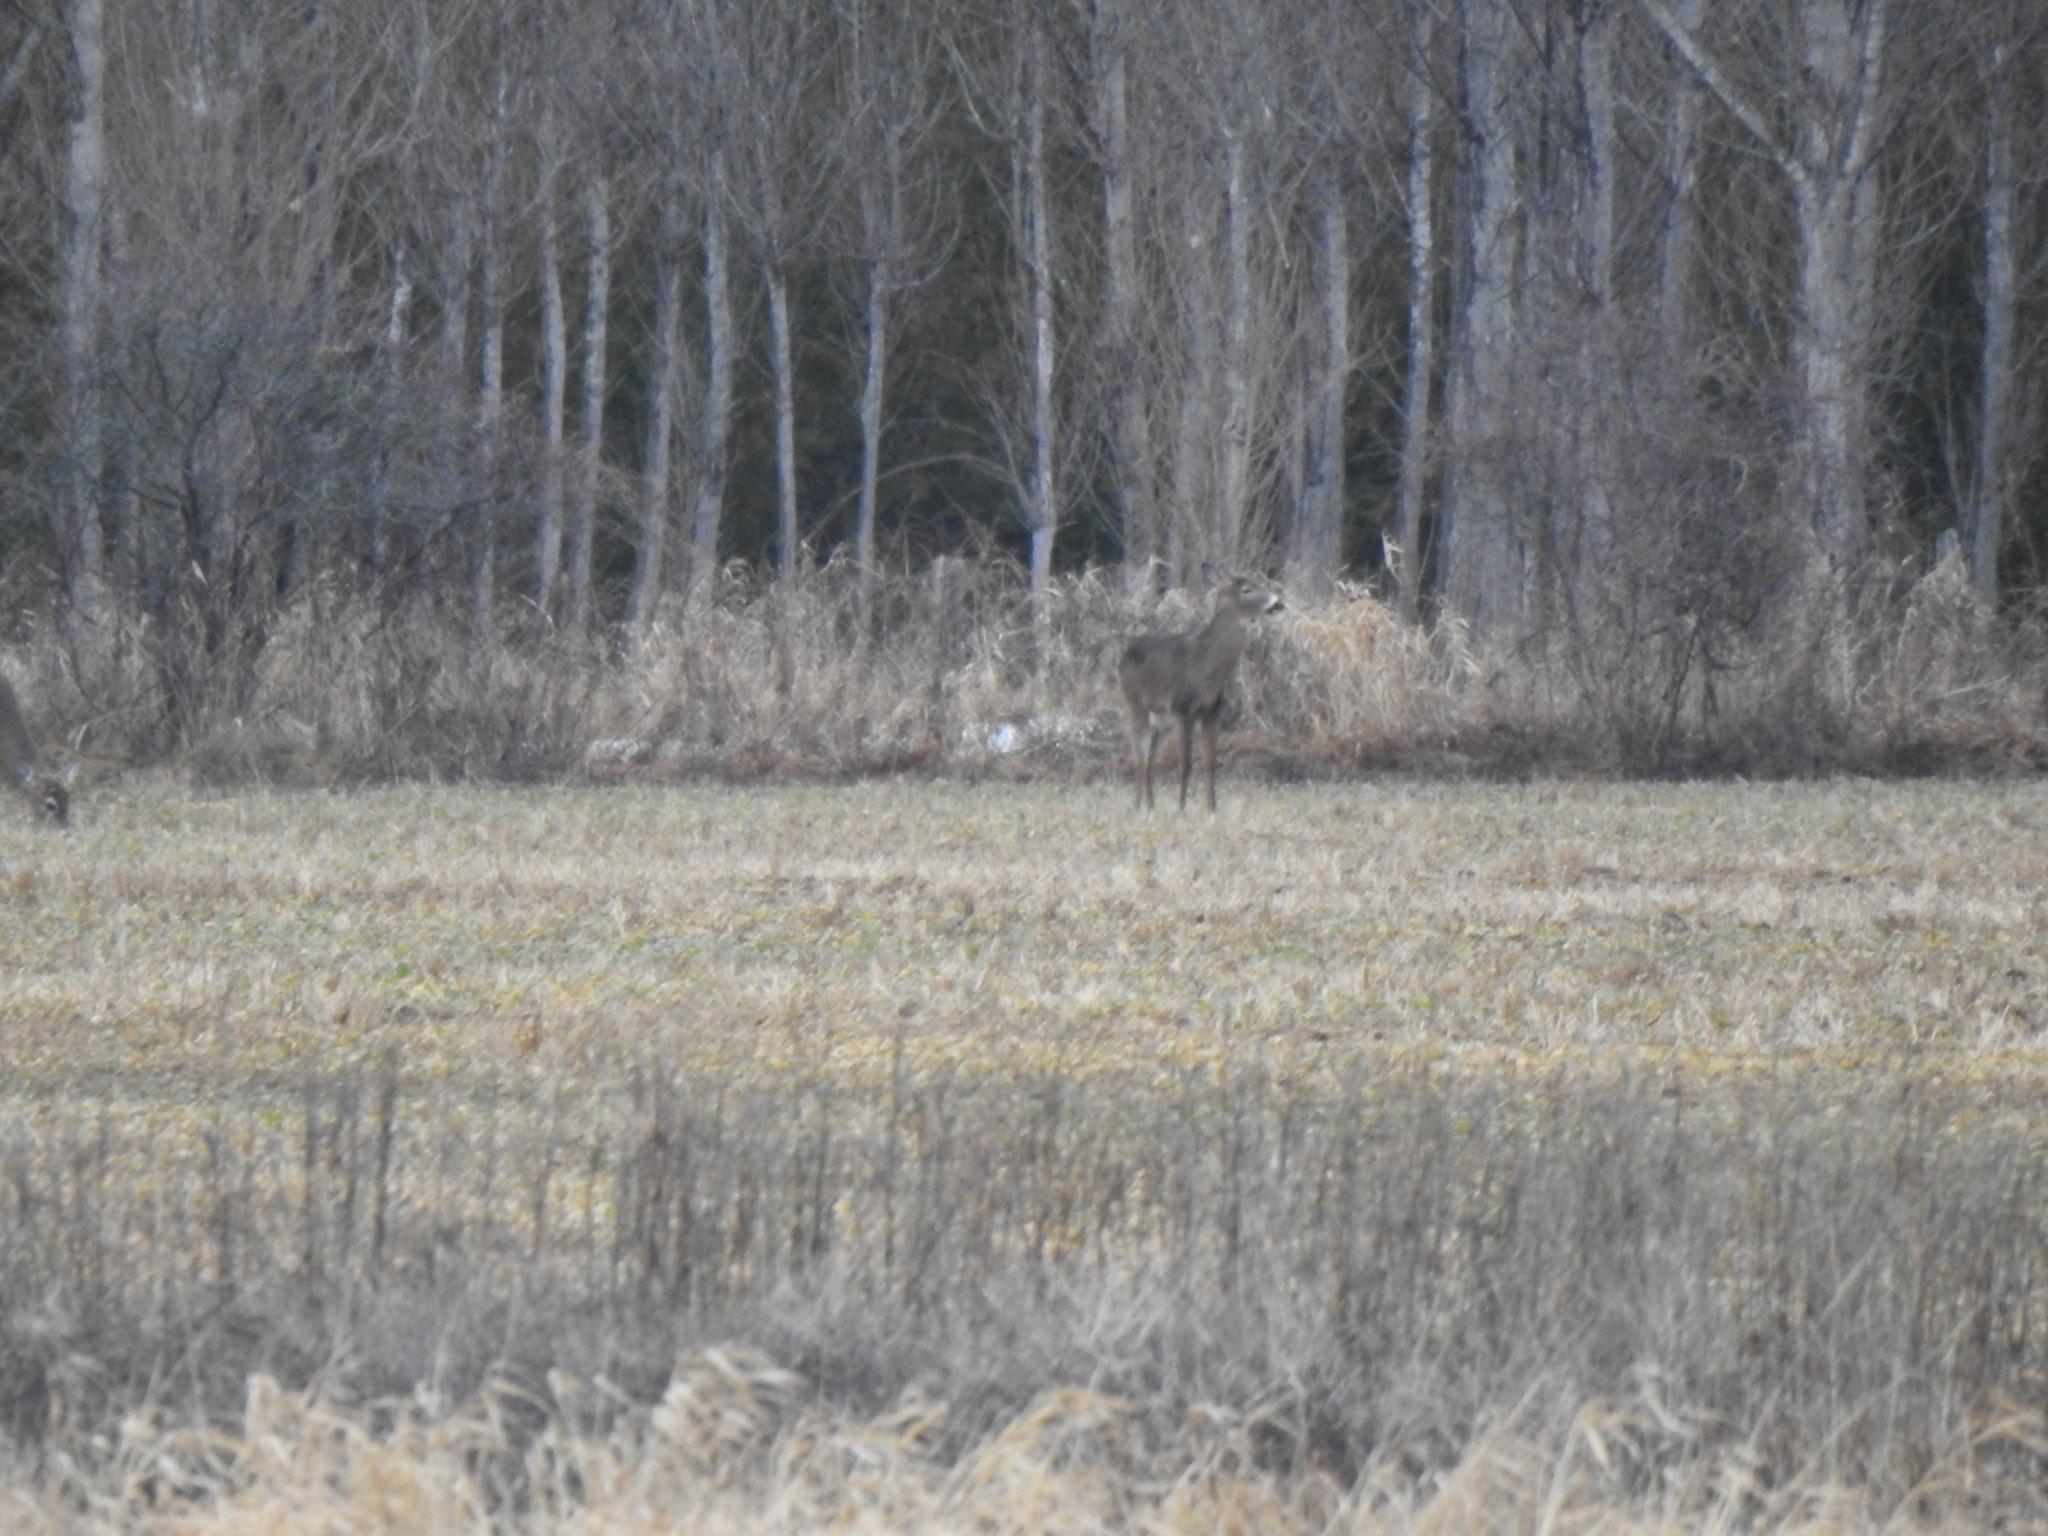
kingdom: Animalia
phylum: Chordata
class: Mammalia
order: Artiodactyla
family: Cervidae
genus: Odocoileus
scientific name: Odocoileus virginianus
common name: White-tailed deer
